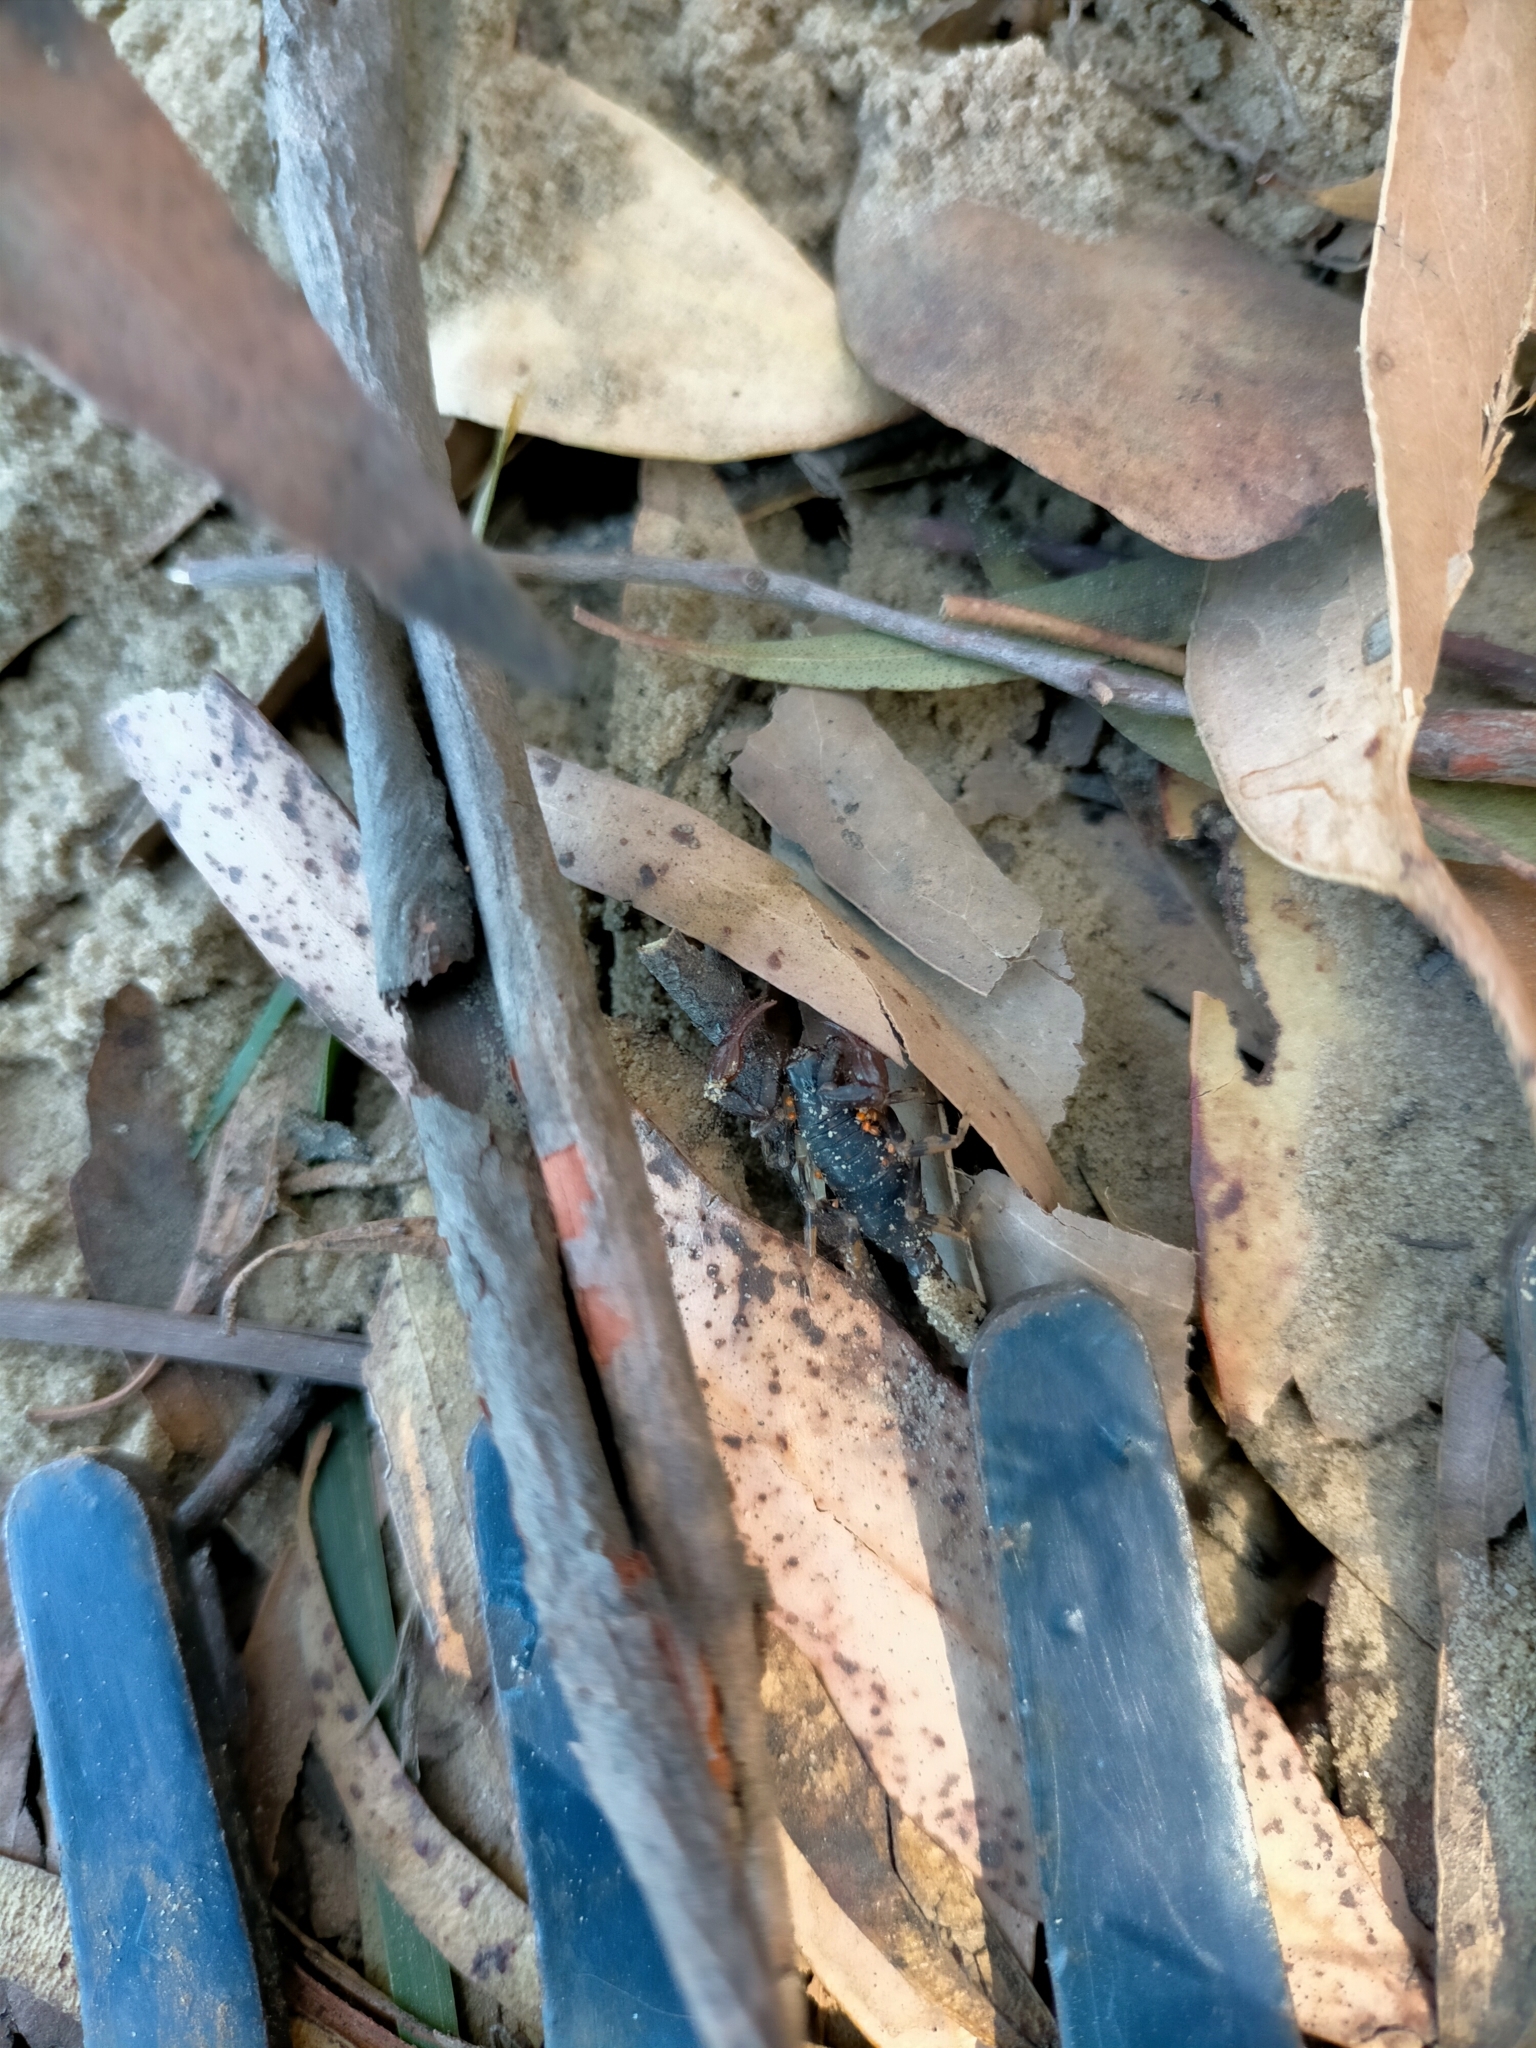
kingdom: Animalia
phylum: Arthropoda
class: Arachnida
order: Scorpiones
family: Bothriuridae
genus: Cercophonius
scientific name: Cercophonius squama
